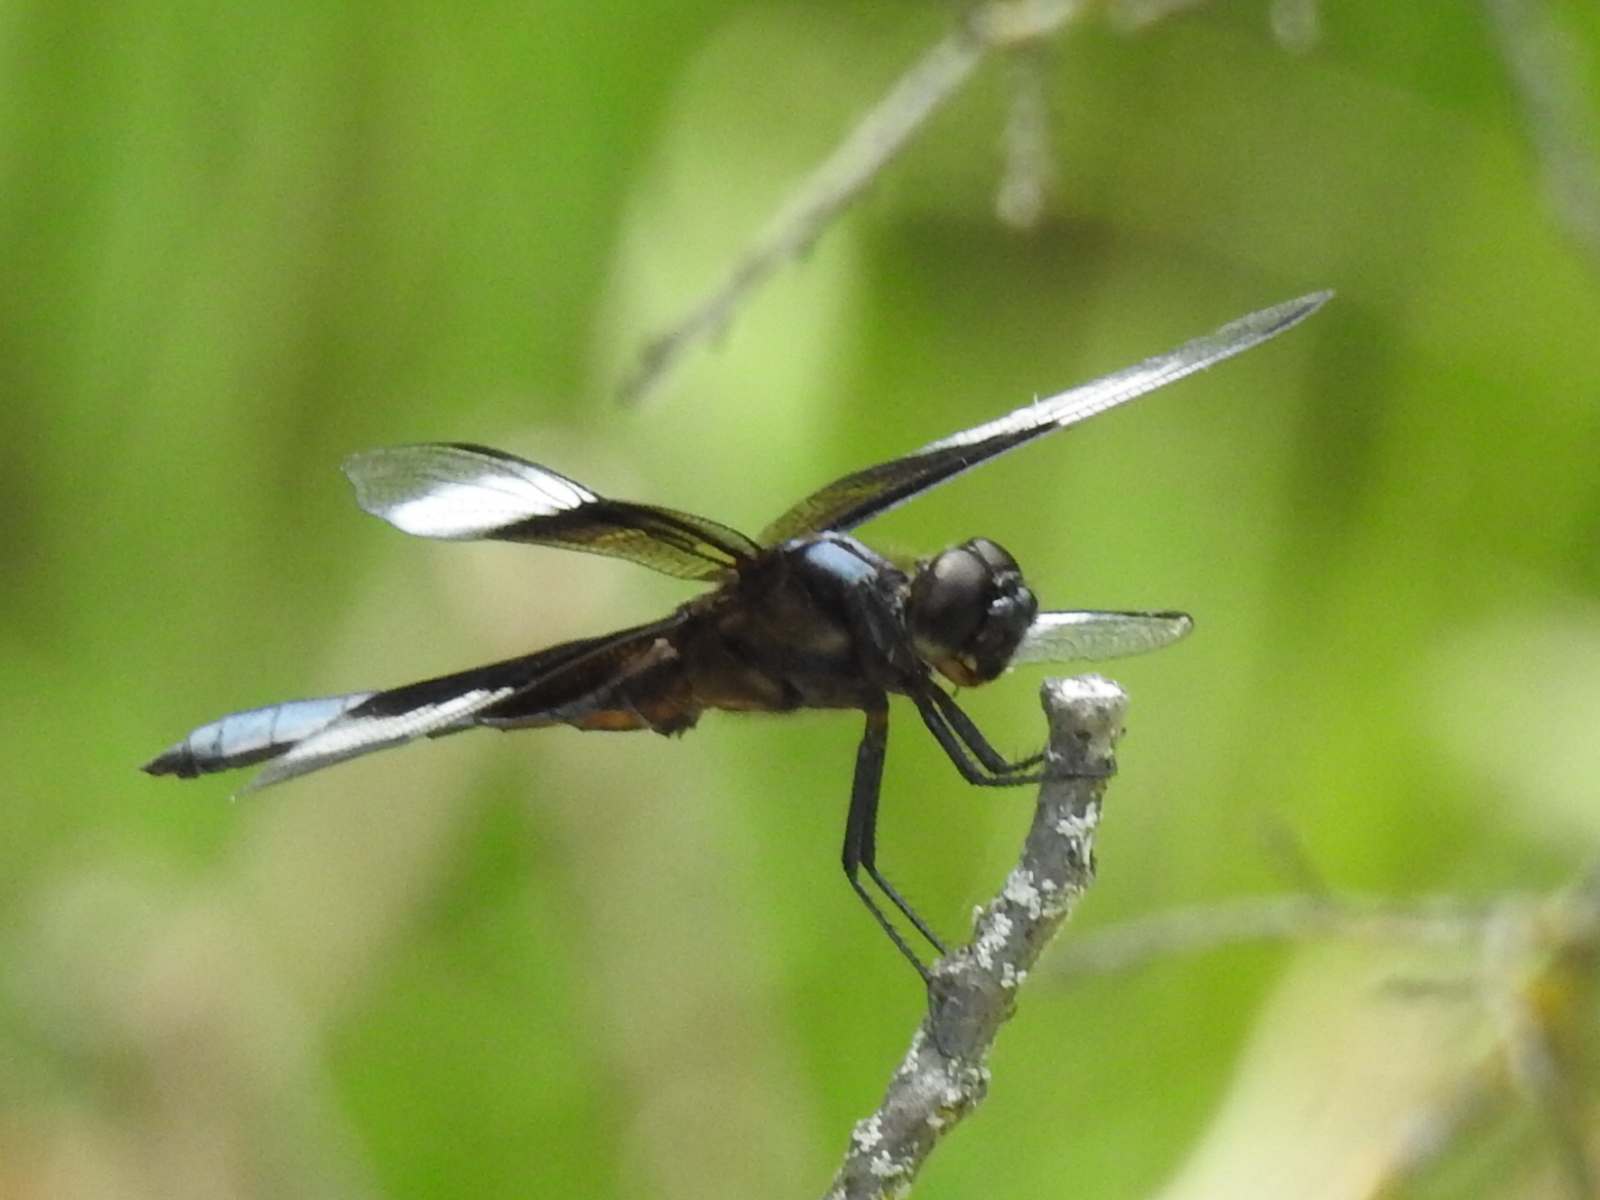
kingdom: Animalia
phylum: Arthropoda
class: Insecta
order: Odonata
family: Libellulidae
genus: Libellula
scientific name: Libellula luctuosa
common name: Widow skimmer
